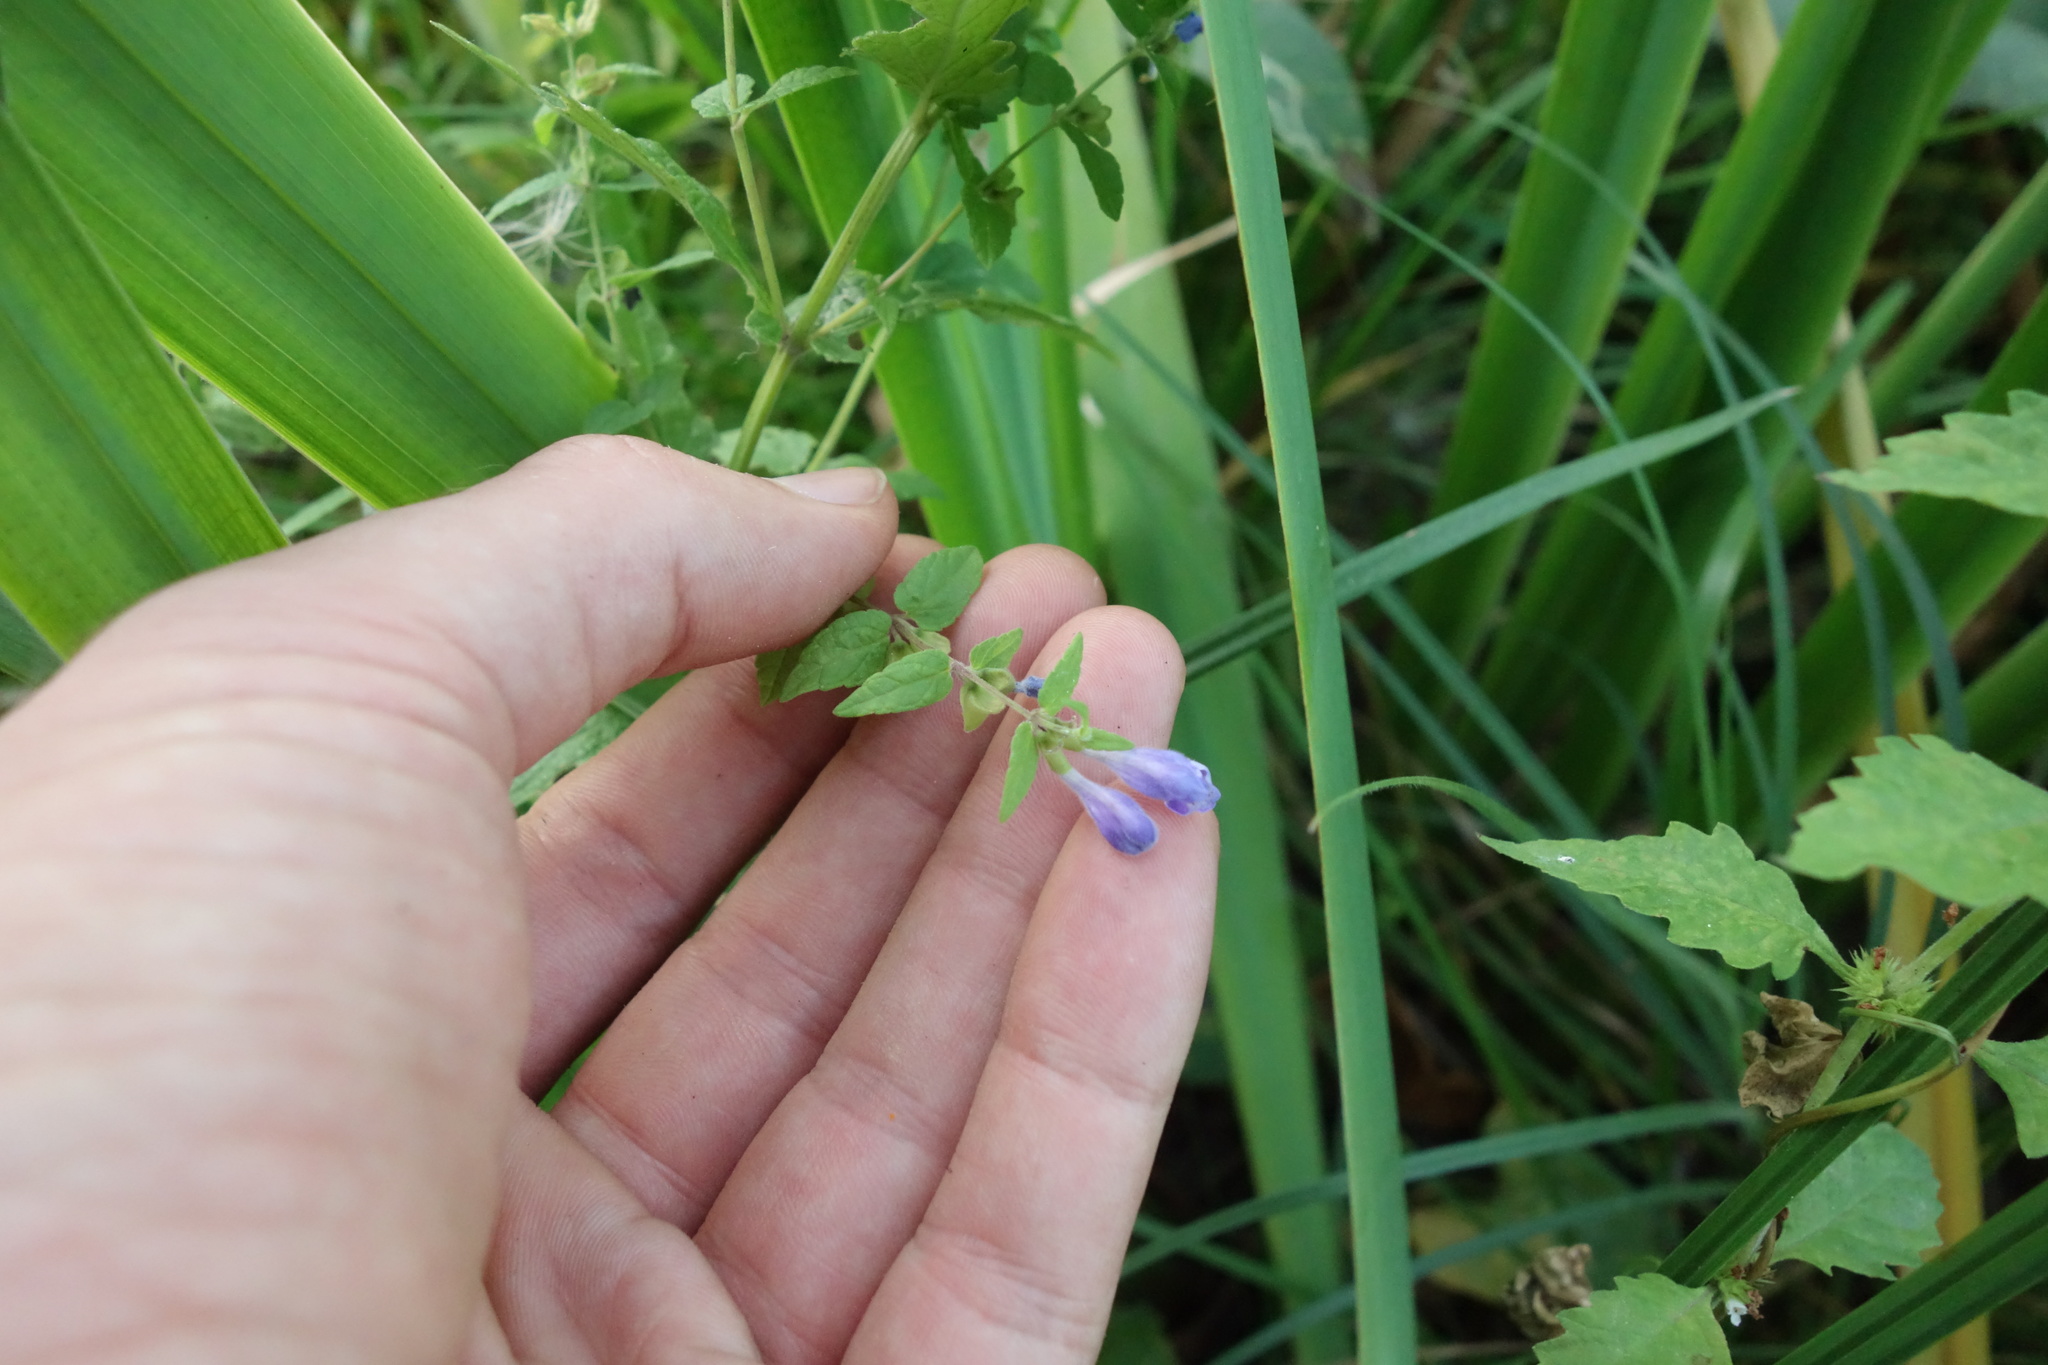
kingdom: Plantae
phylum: Tracheophyta
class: Magnoliopsida
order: Lamiales
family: Lamiaceae
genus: Scutellaria
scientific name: Scutellaria galericulata
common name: Skullcap
